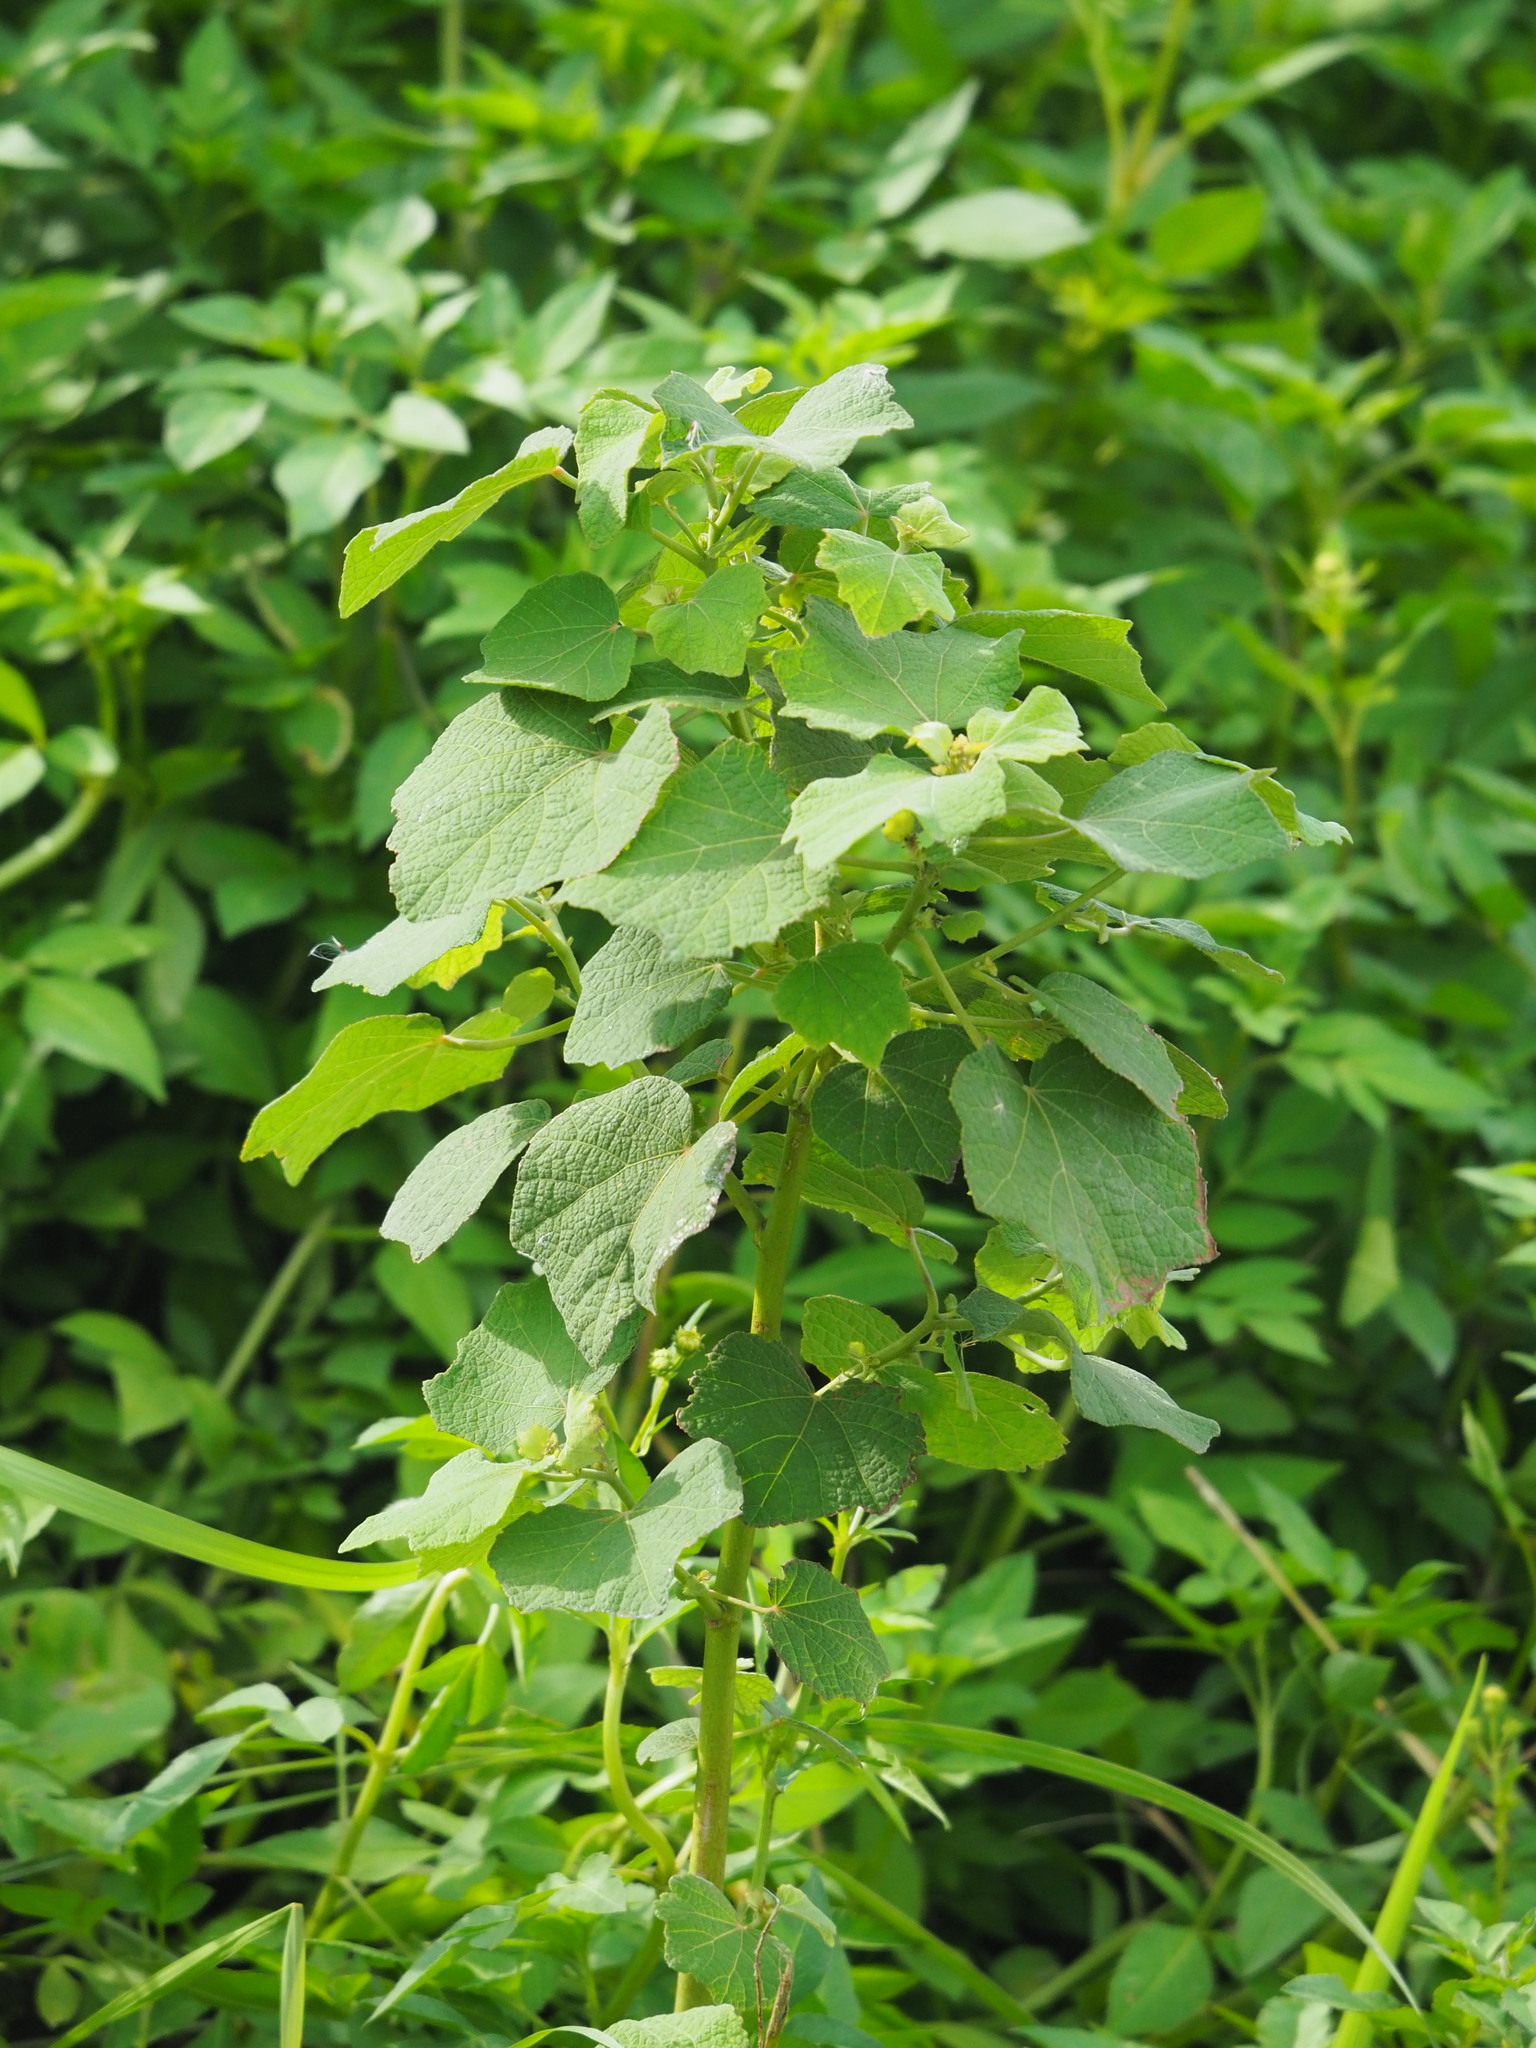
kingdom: Plantae
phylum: Tracheophyta
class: Magnoliopsida
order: Malvales
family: Malvaceae
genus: Urena
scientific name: Urena lobata
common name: Caesarweed
